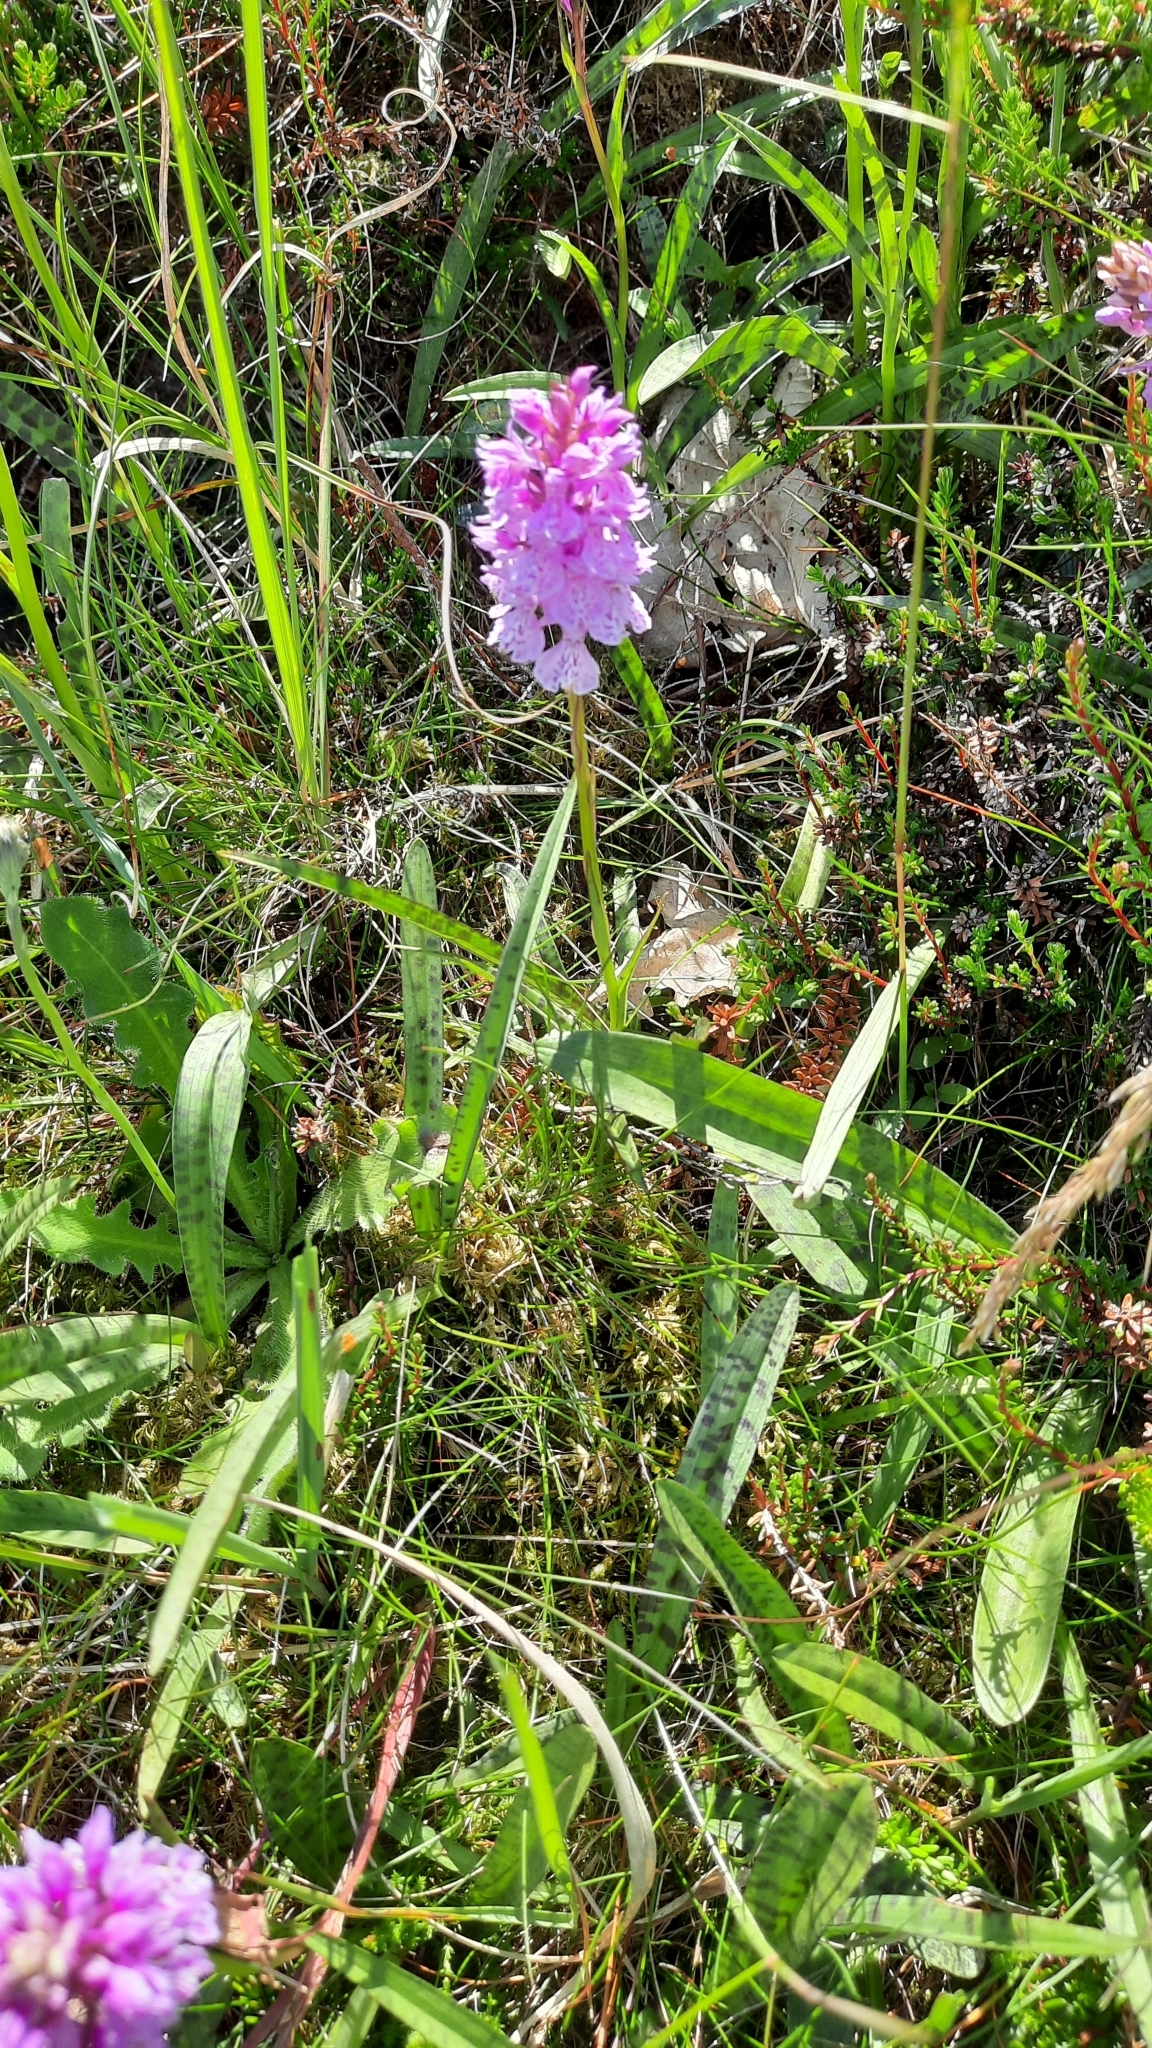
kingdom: Plantae
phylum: Tracheophyta
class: Liliopsida
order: Asparagales
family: Orchidaceae
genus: Dactylorhiza
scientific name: Dactylorhiza maculata
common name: Heath spotted-orchid
